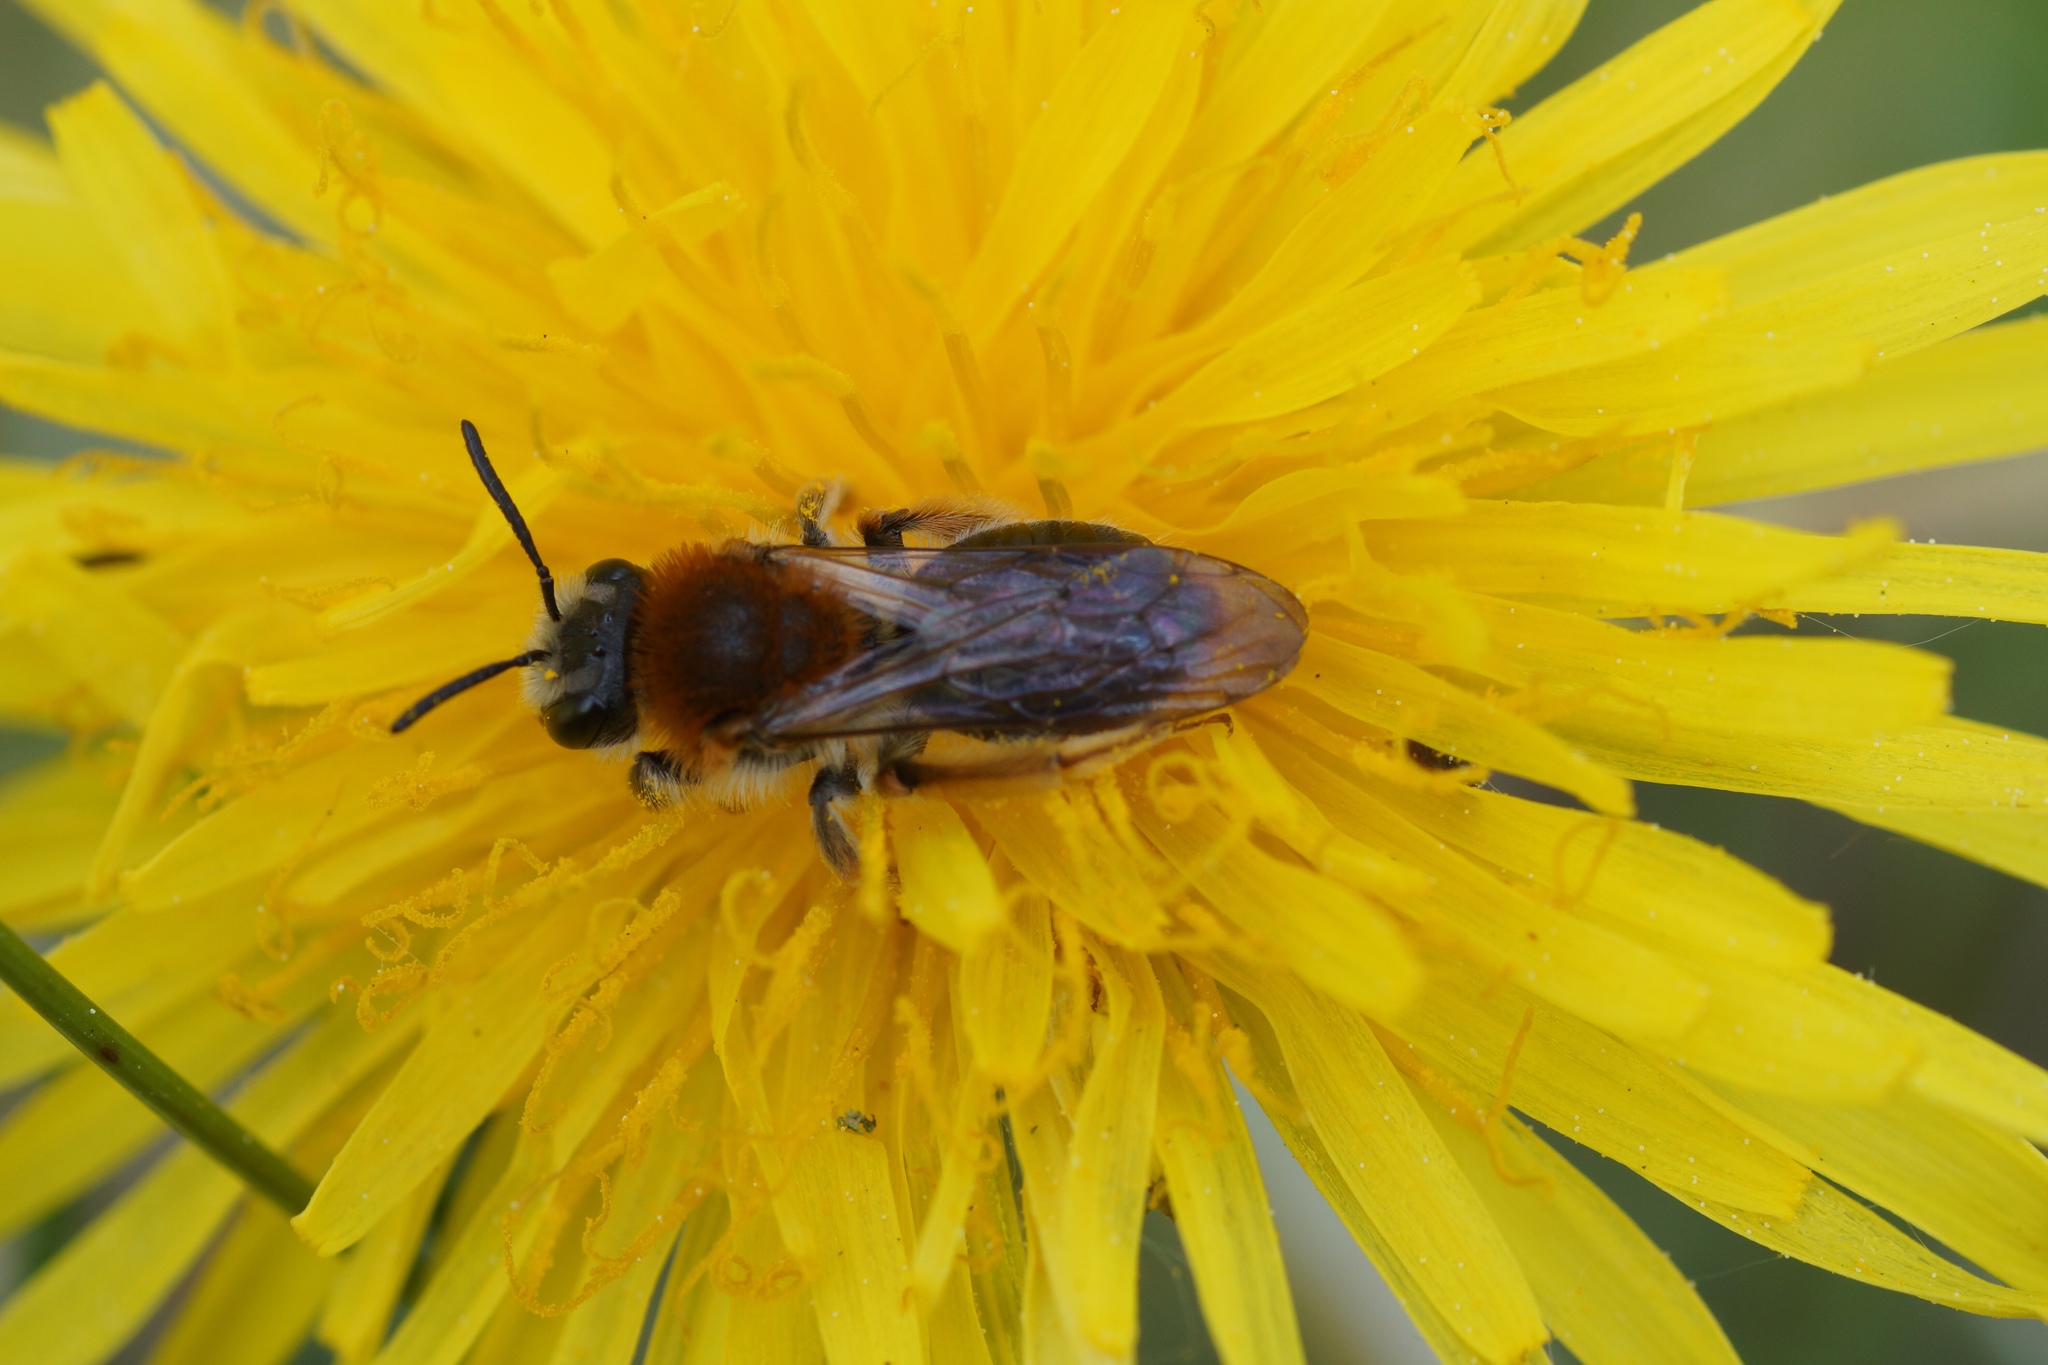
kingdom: Animalia
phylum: Arthropoda
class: Insecta
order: Hymenoptera
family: Andrenidae
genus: Andrena
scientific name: Andrena haemorrhoa
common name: Early mining bee
